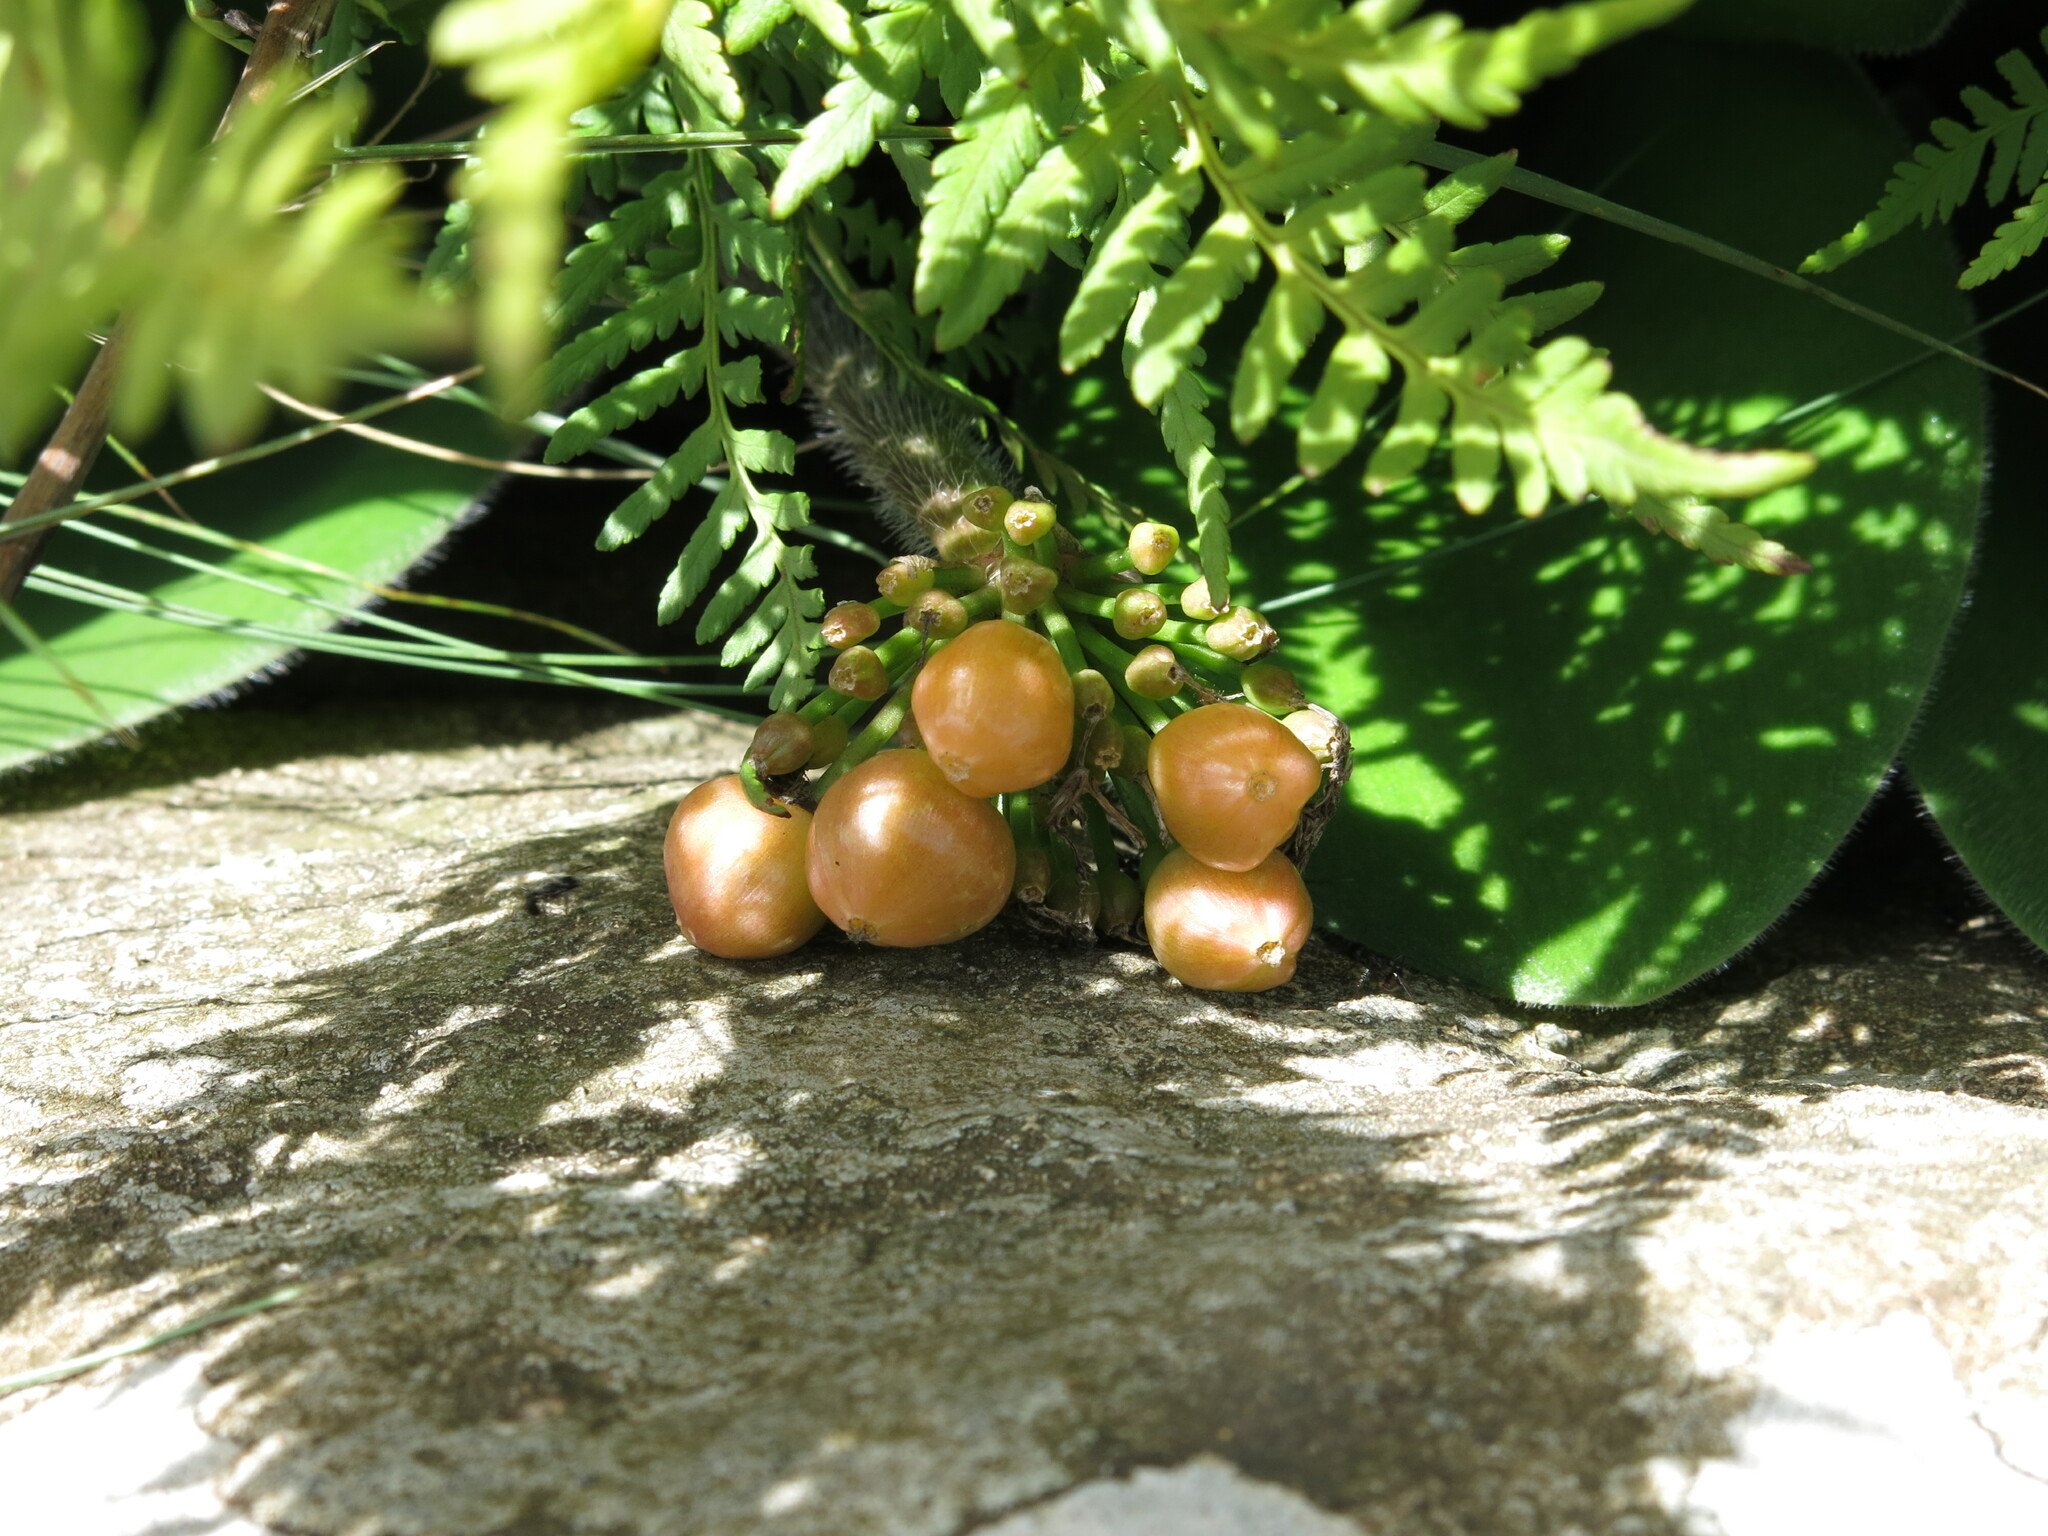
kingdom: Plantae
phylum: Tracheophyta
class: Liliopsida
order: Asparagales
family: Amaryllidaceae
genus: Haemanthus
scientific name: Haemanthus humilis
